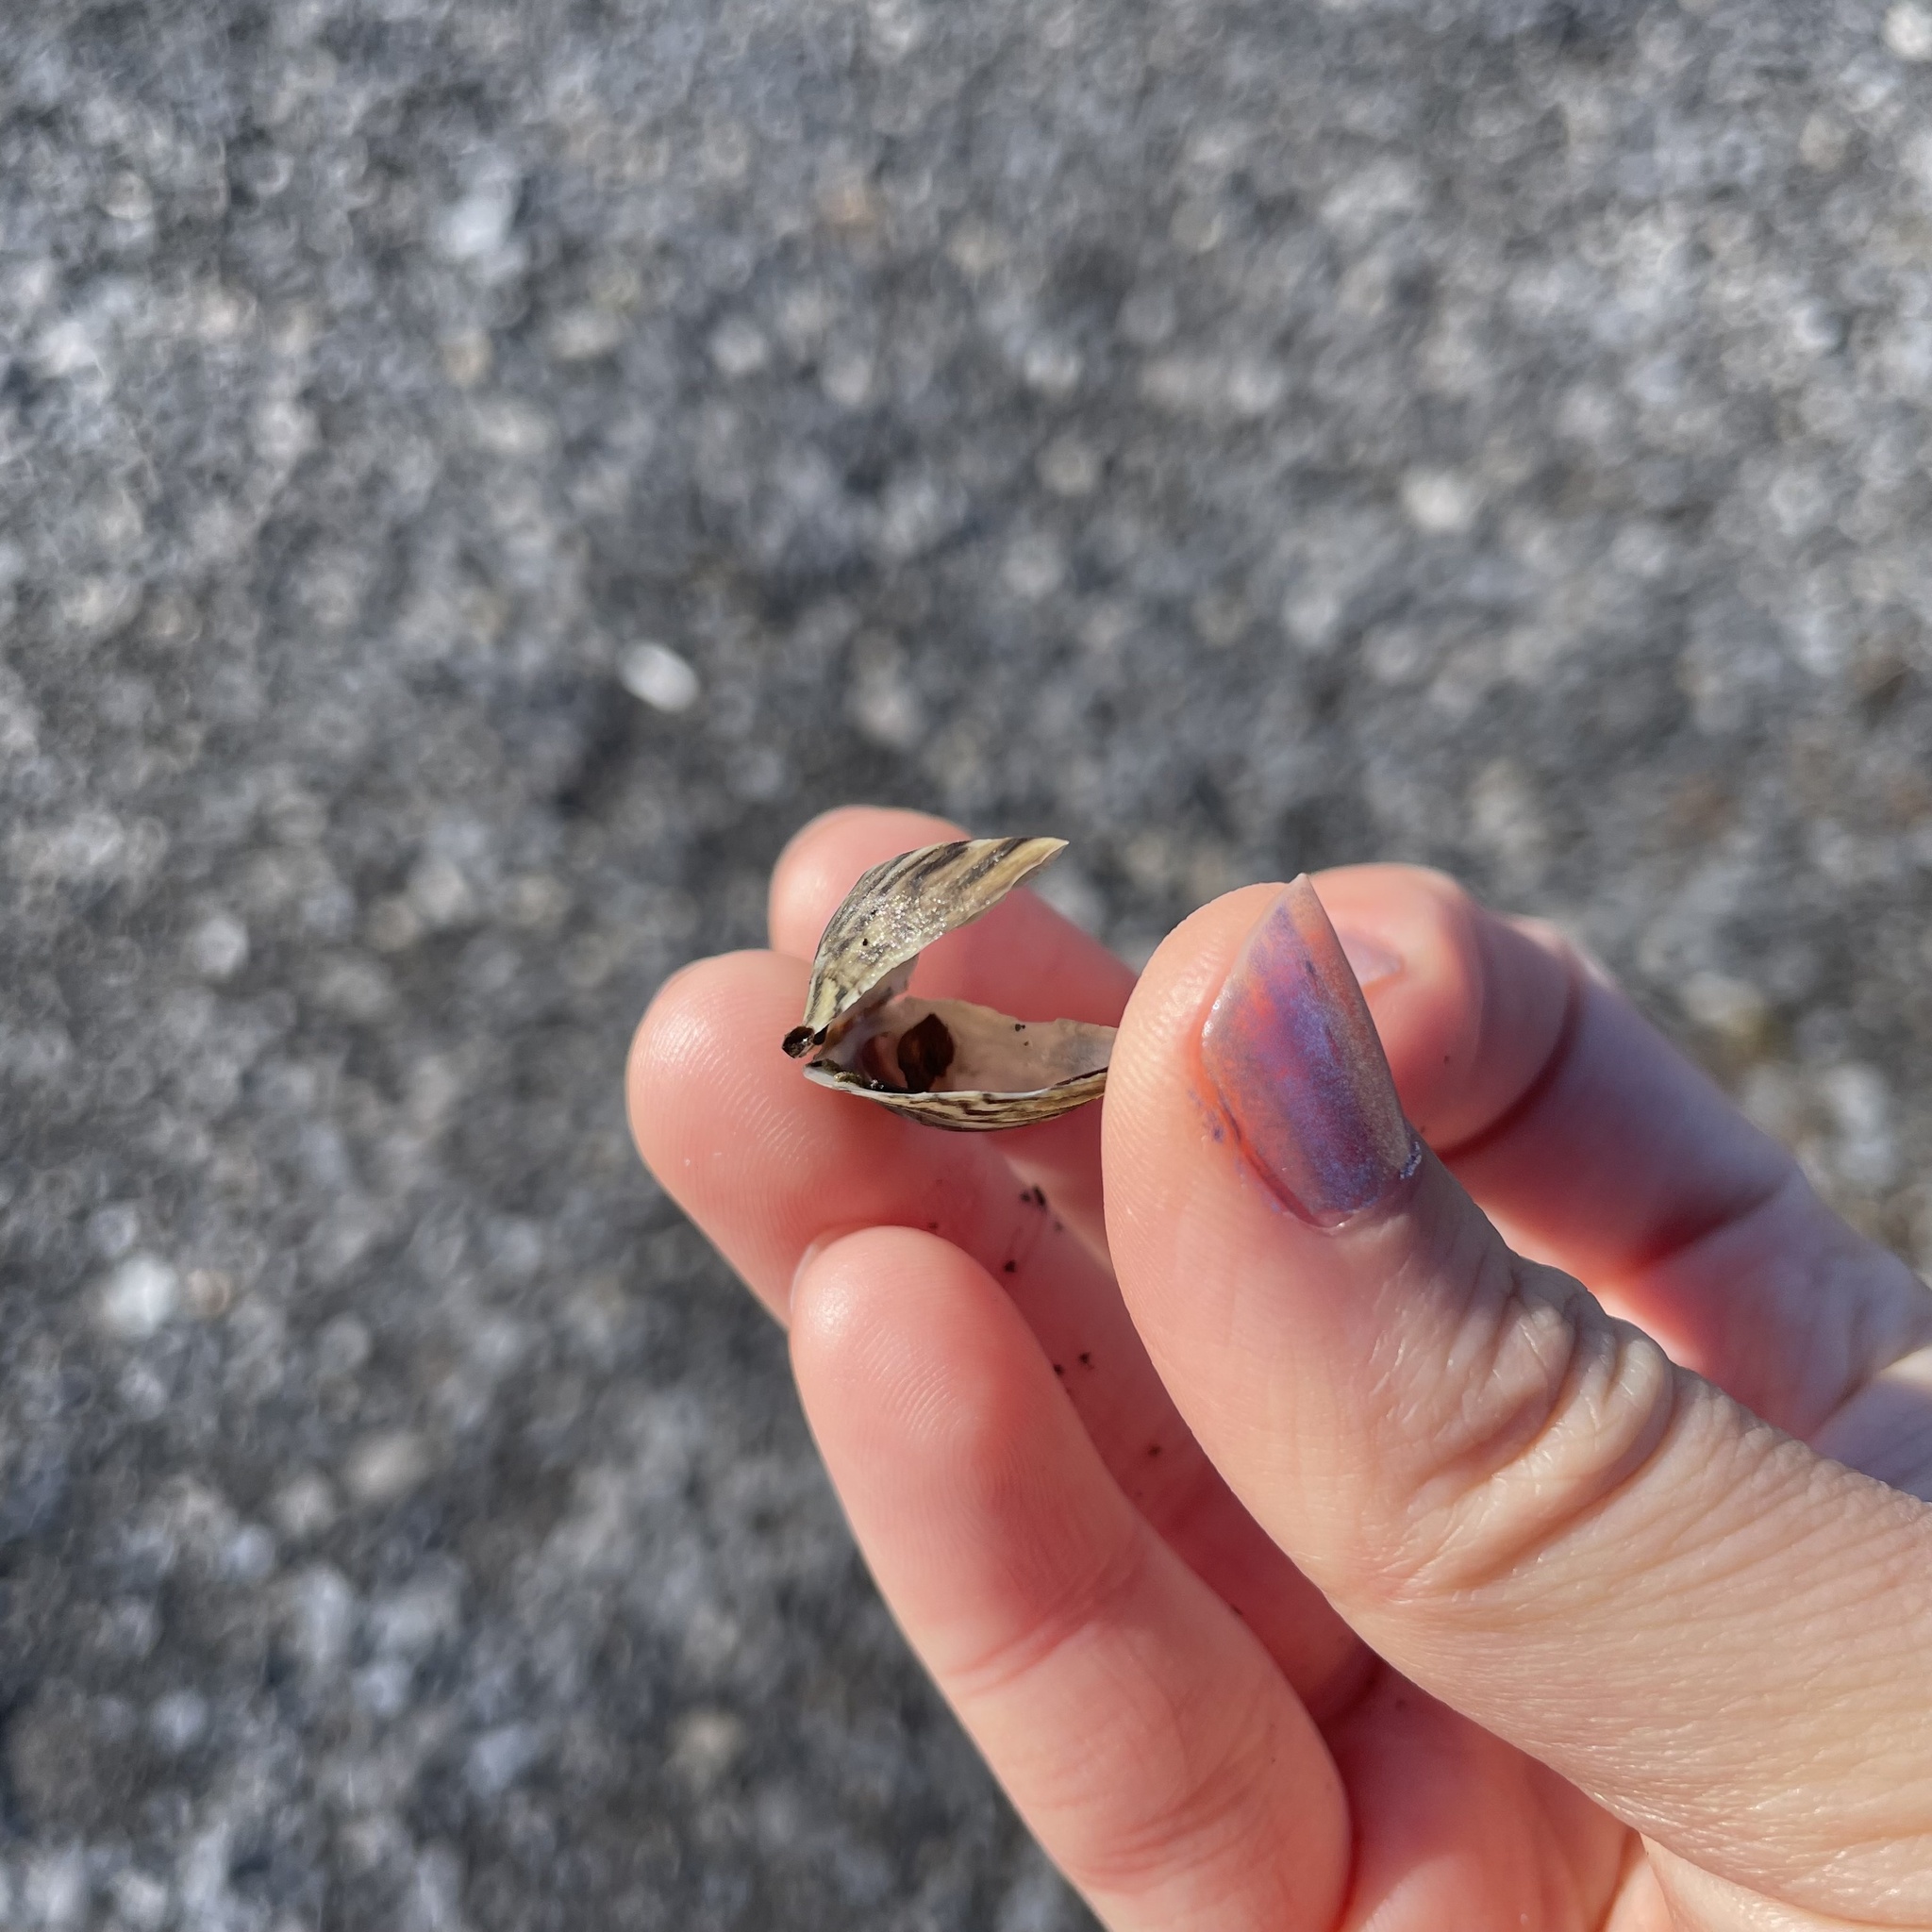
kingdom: Animalia
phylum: Mollusca
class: Bivalvia
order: Myida
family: Dreissenidae
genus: Dreissena
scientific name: Dreissena polymorpha
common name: Zebra mussel
